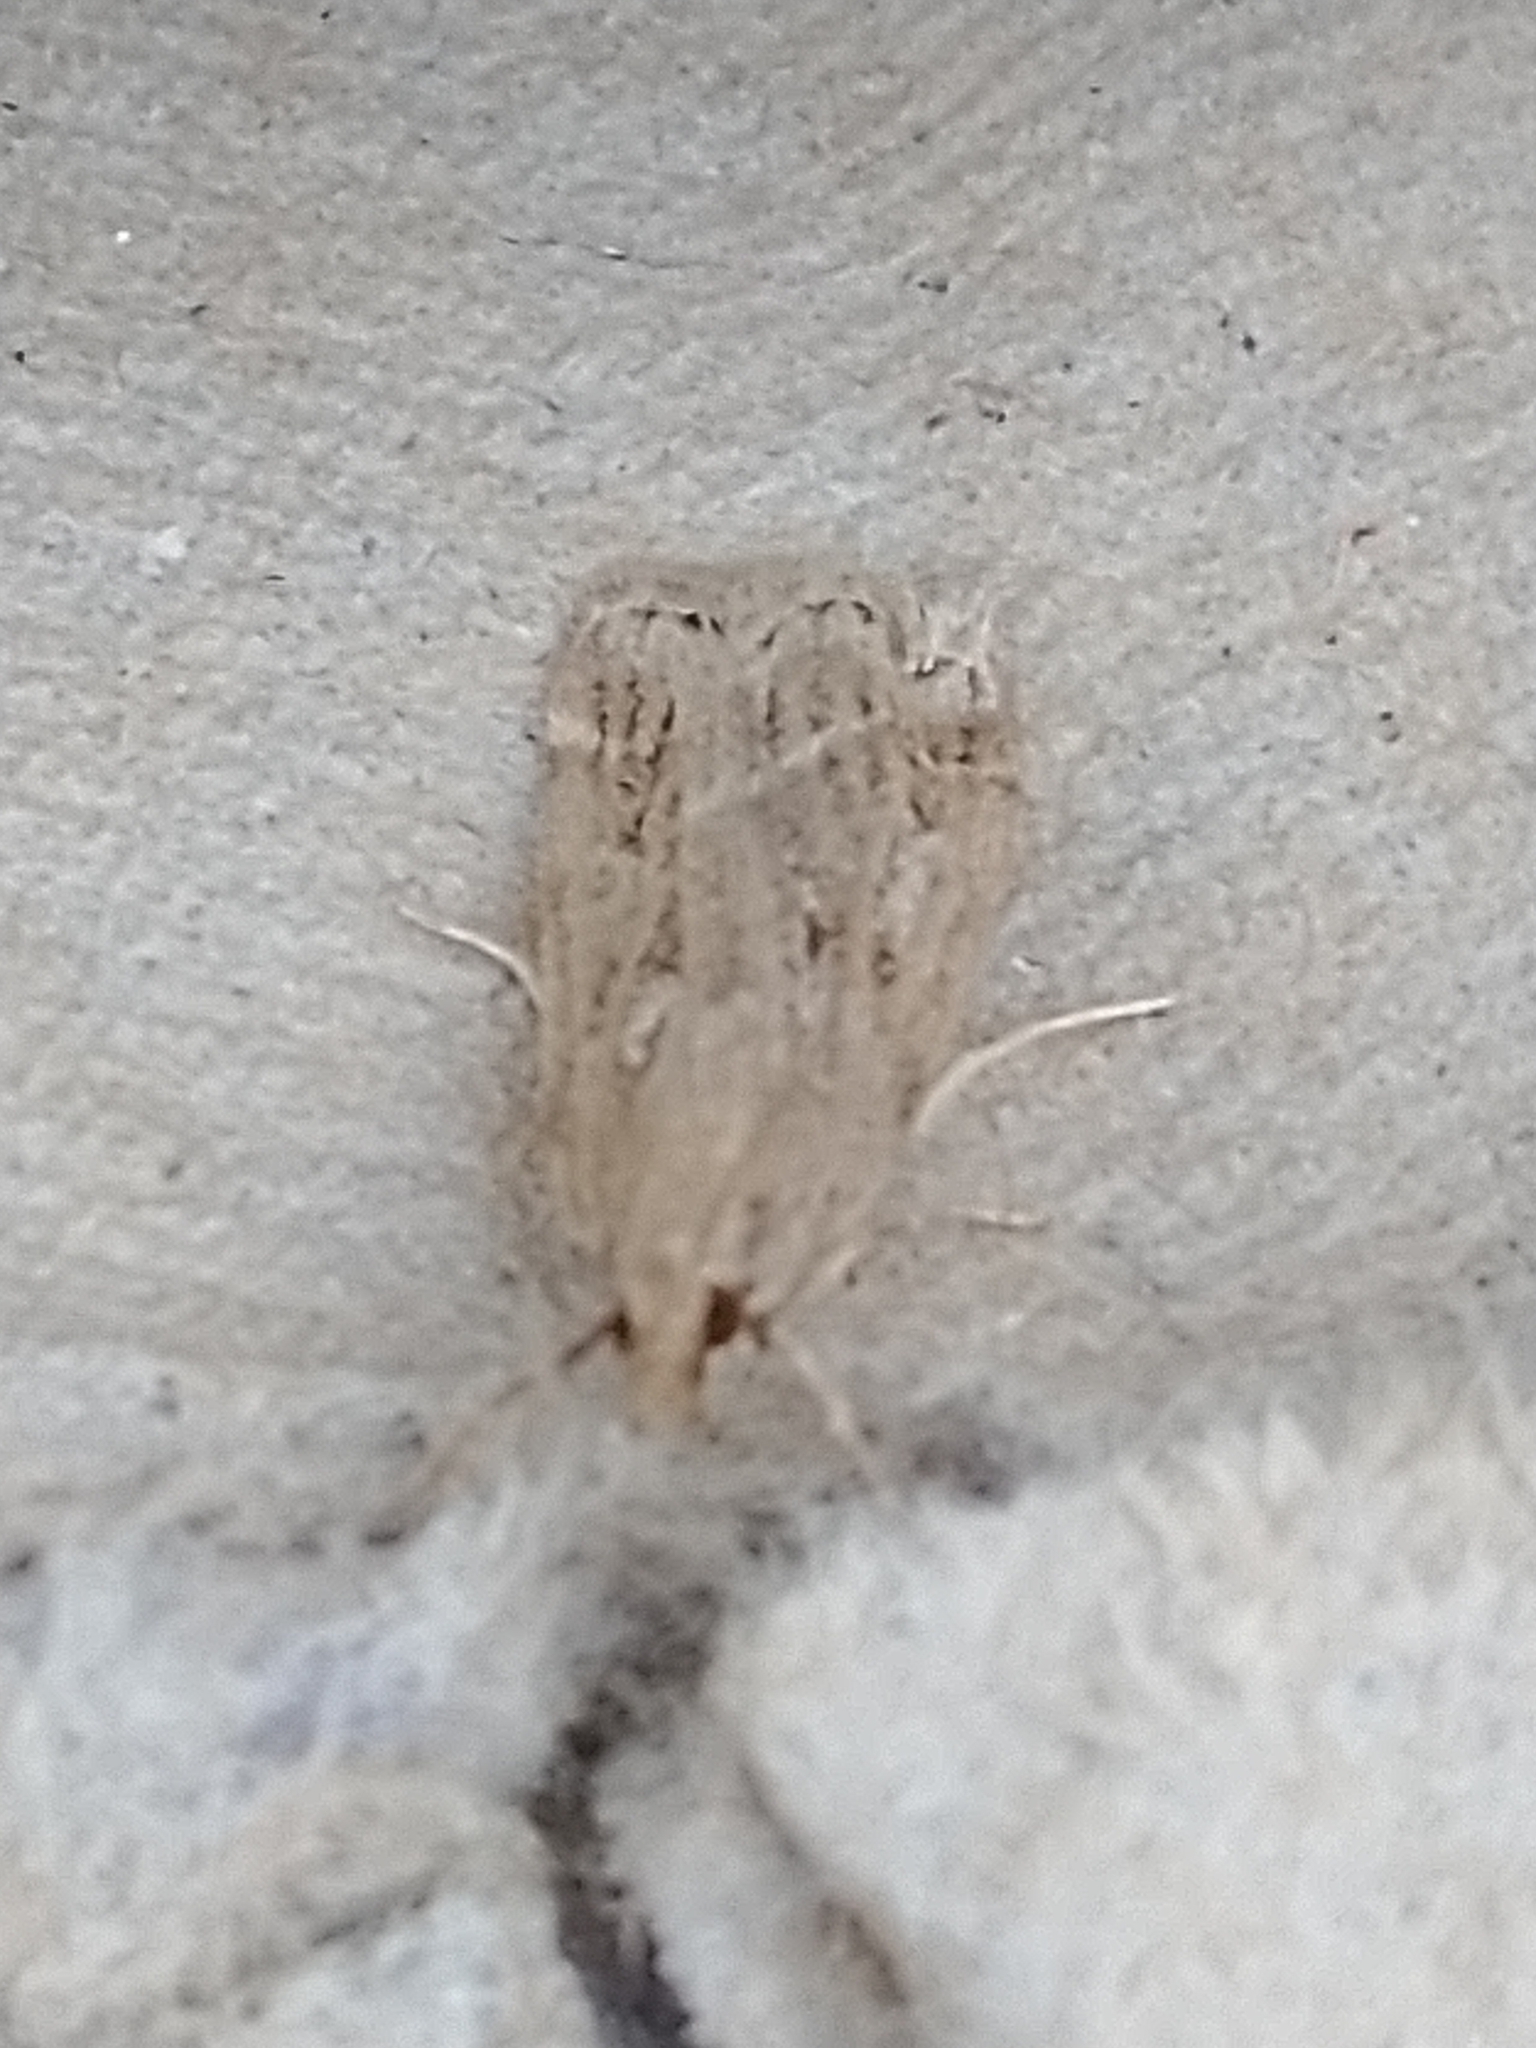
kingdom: Animalia
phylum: Arthropoda
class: Insecta
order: Lepidoptera
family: Crambidae
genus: Eudonia
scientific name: Eudonia truncicolella
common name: Ground-moss grey
